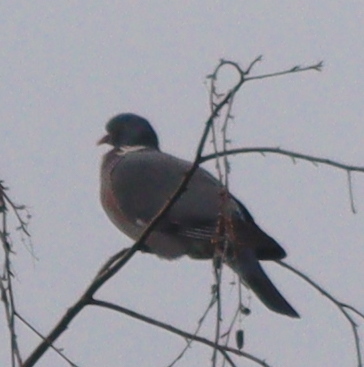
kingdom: Animalia
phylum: Chordata
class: Aves
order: Columbiformes
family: Columbidae
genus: Columba
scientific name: Columba palumbus
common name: Common wood pigeon
